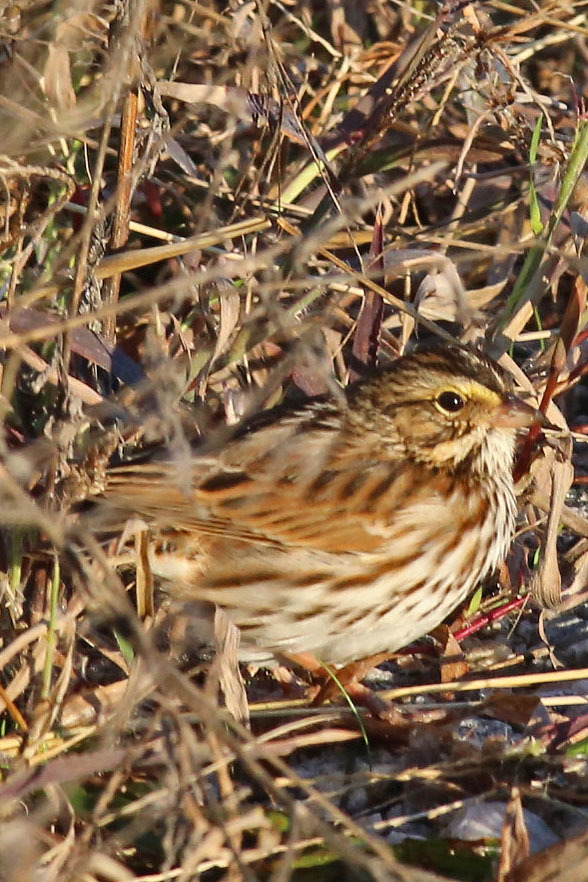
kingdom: Animalia
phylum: Chordata
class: Aves
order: Passeriformes
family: Passerellidae
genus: Passerculus
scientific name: Passerculus sandwichensis
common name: Savannah sparrow
